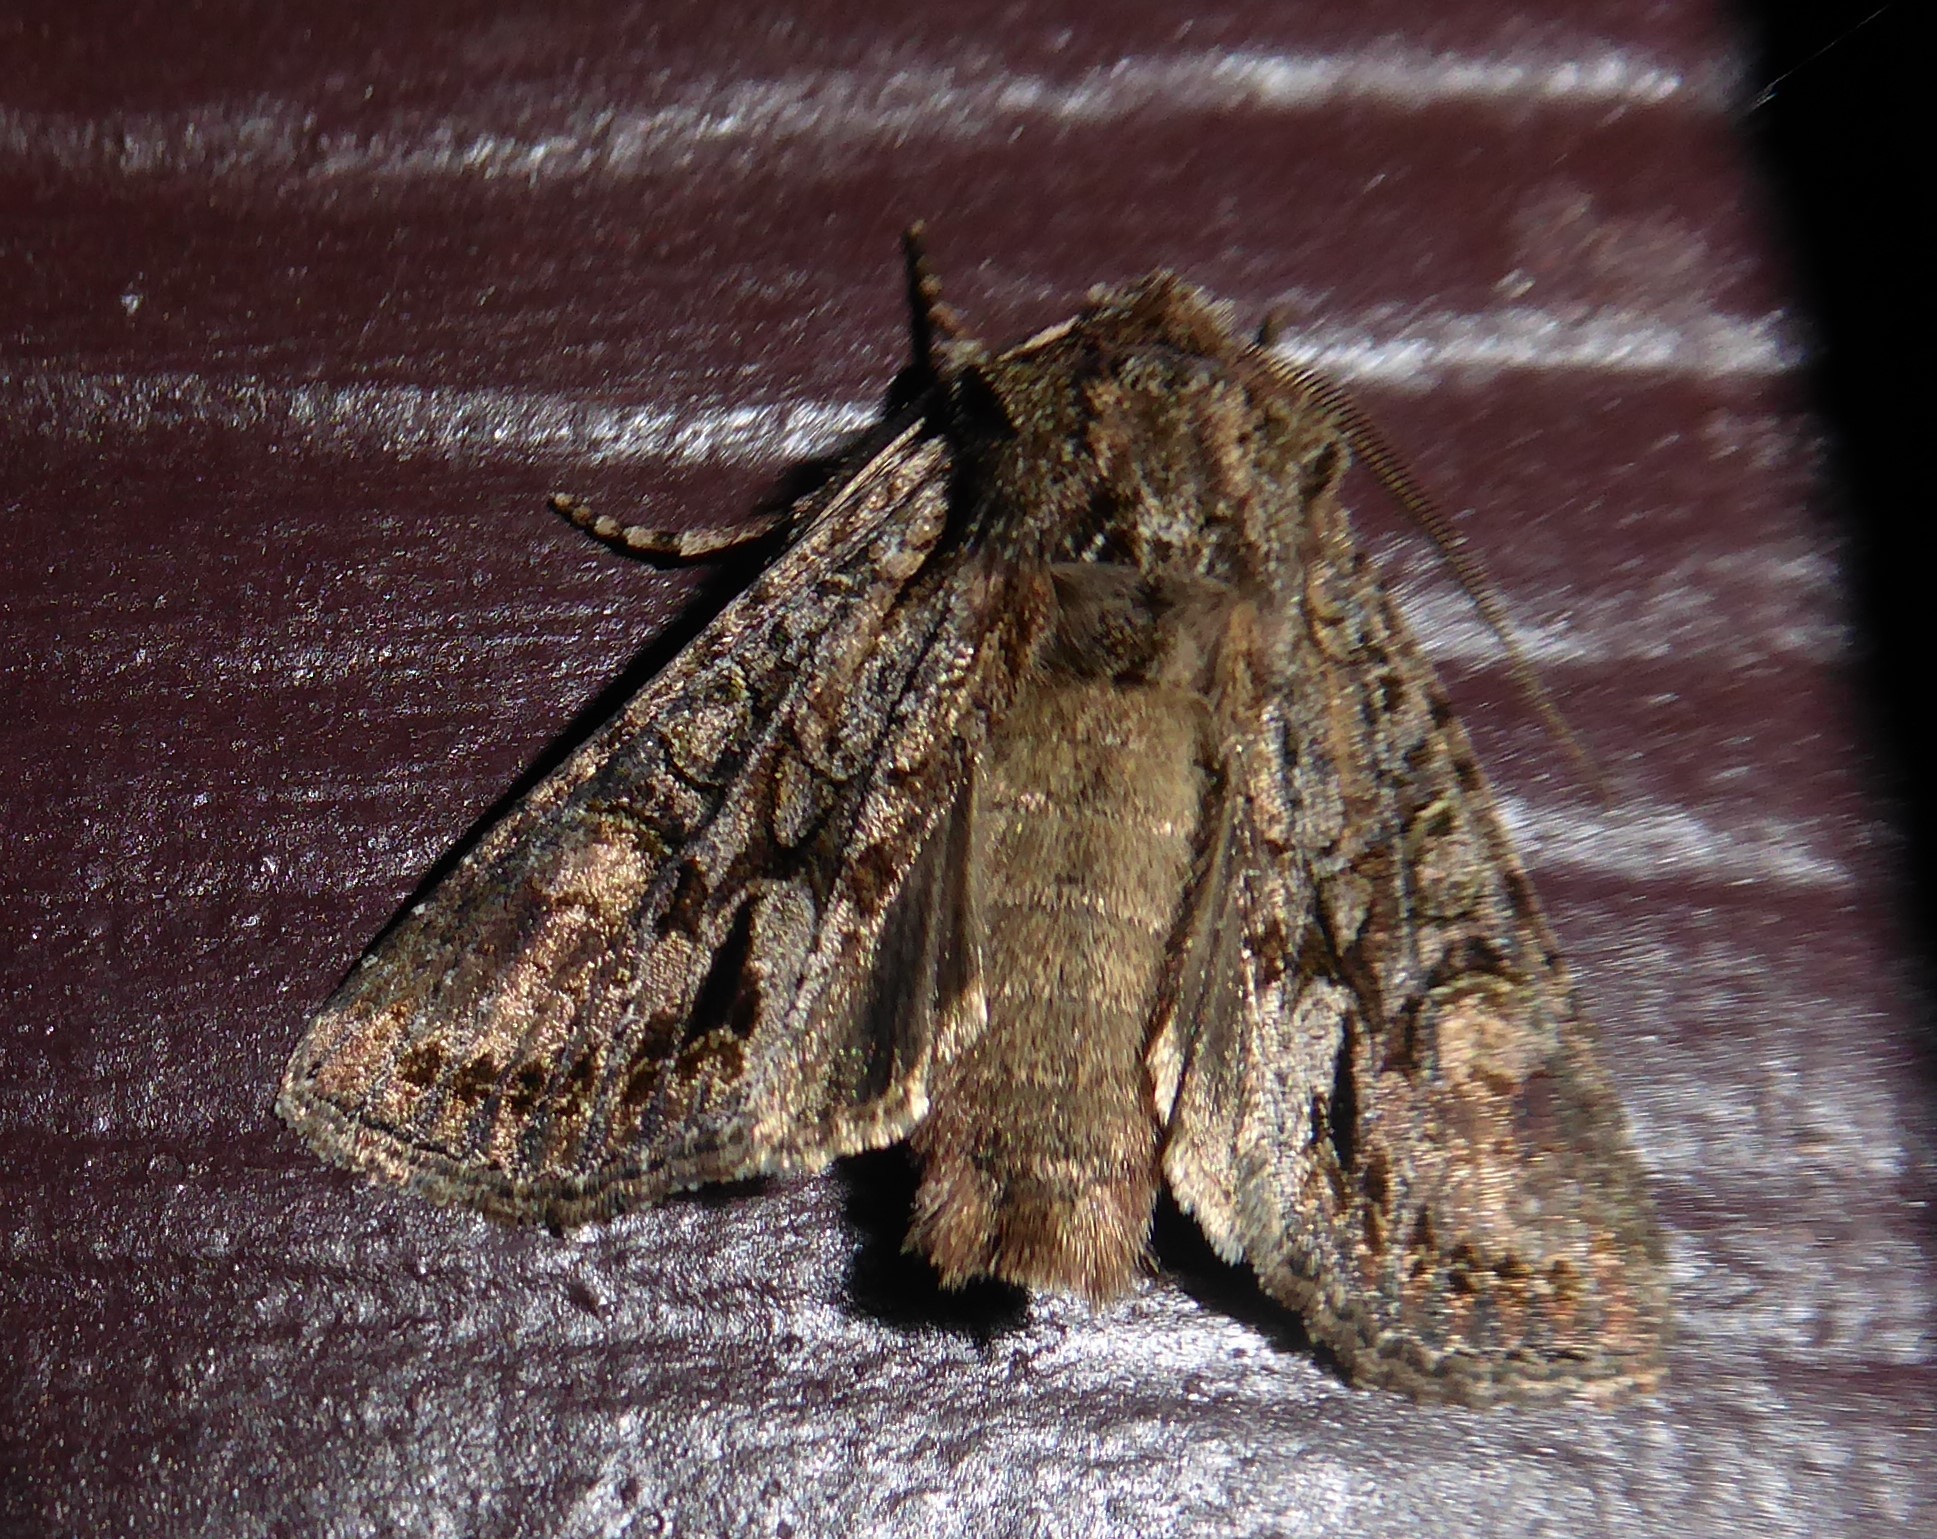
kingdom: Animalia
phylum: Arthropoda
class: Insecta
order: Lepidoptera
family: Noctuidae
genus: Ichneutica
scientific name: Ichneutica mutans
